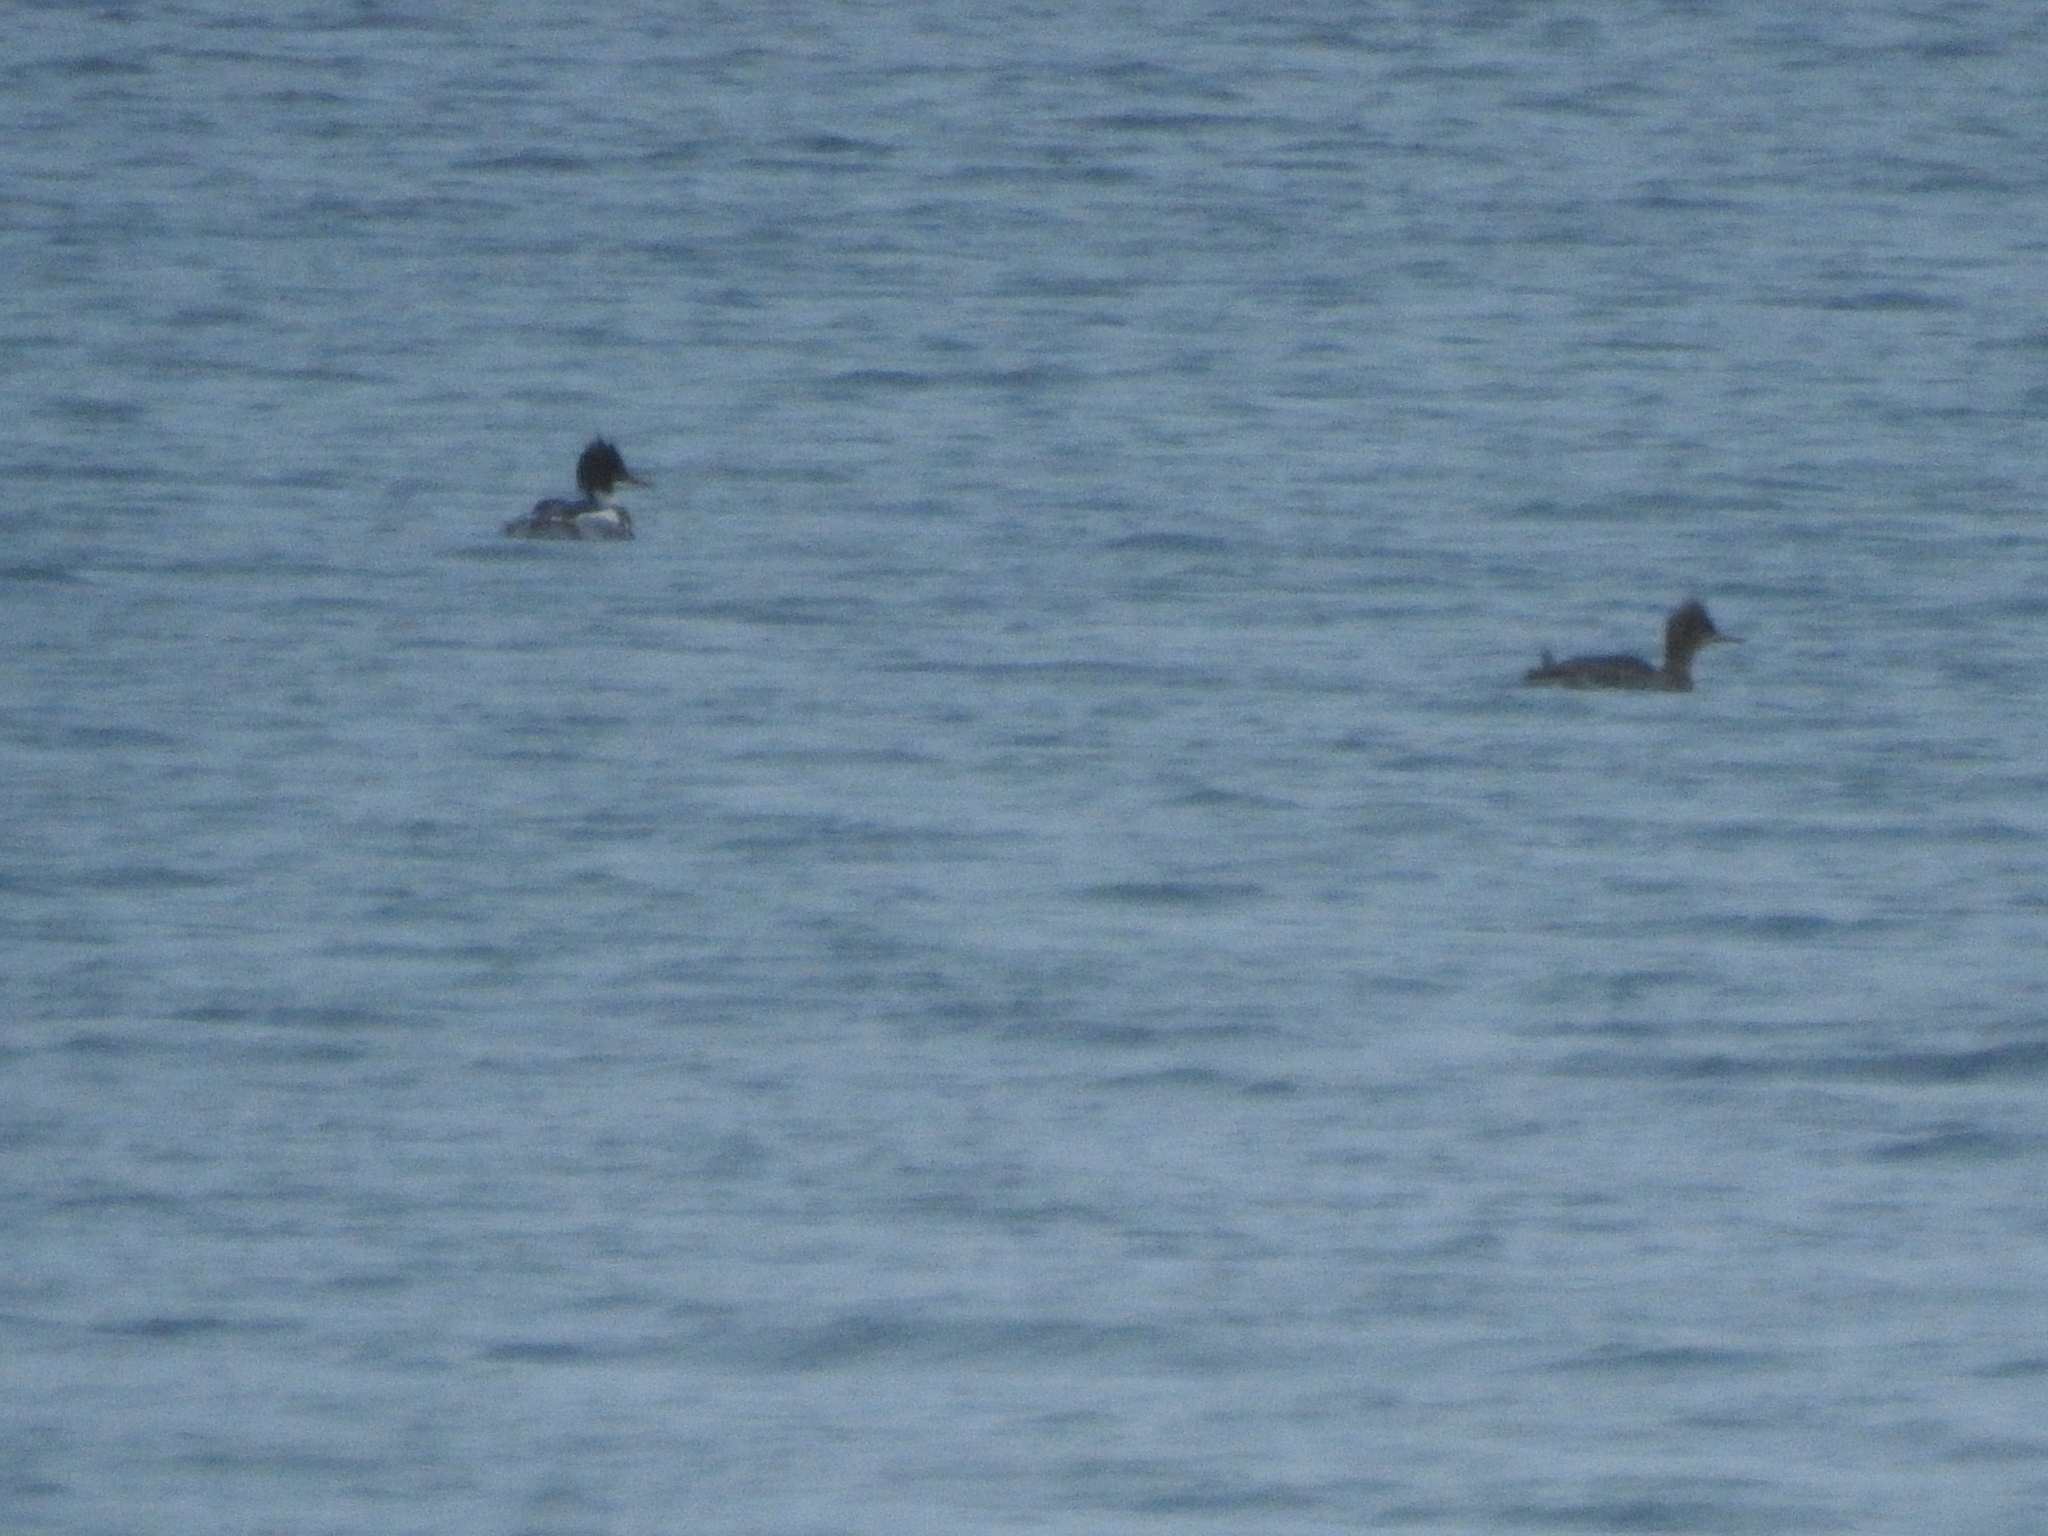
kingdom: Animalia
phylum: Chordata
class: Aves
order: Anseriformes
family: Anatidae
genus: Mergus
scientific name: Mergus serrator
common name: Red-breasted merganser
